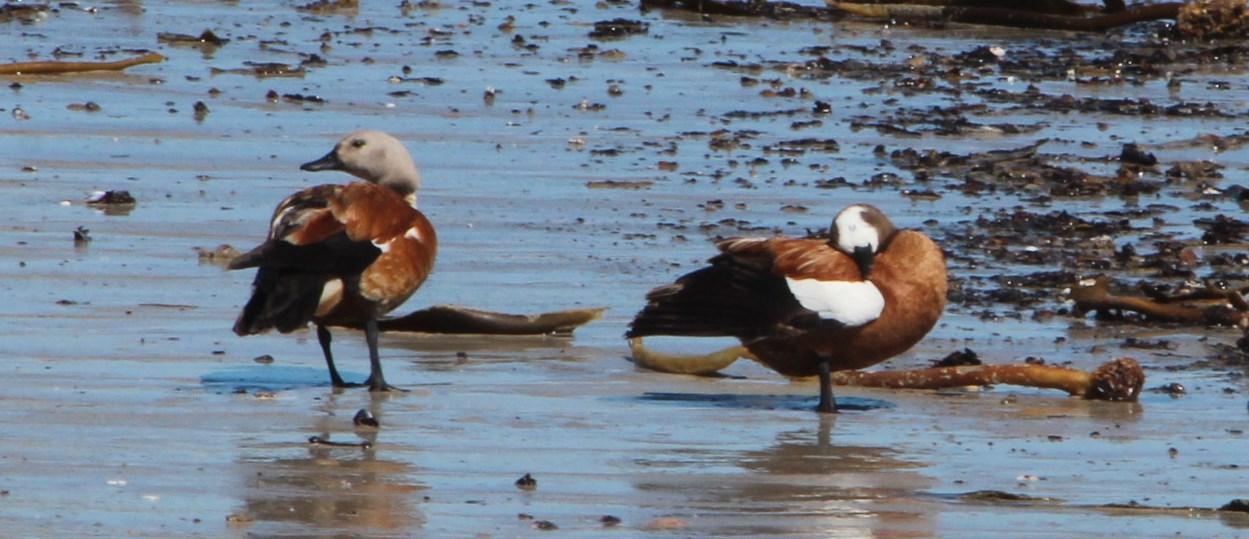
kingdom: Animalia
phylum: Chordata
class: Aves
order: Anseriformes
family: Anatidae
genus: Tadorna
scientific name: Tadorna cana
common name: South african shelduck
